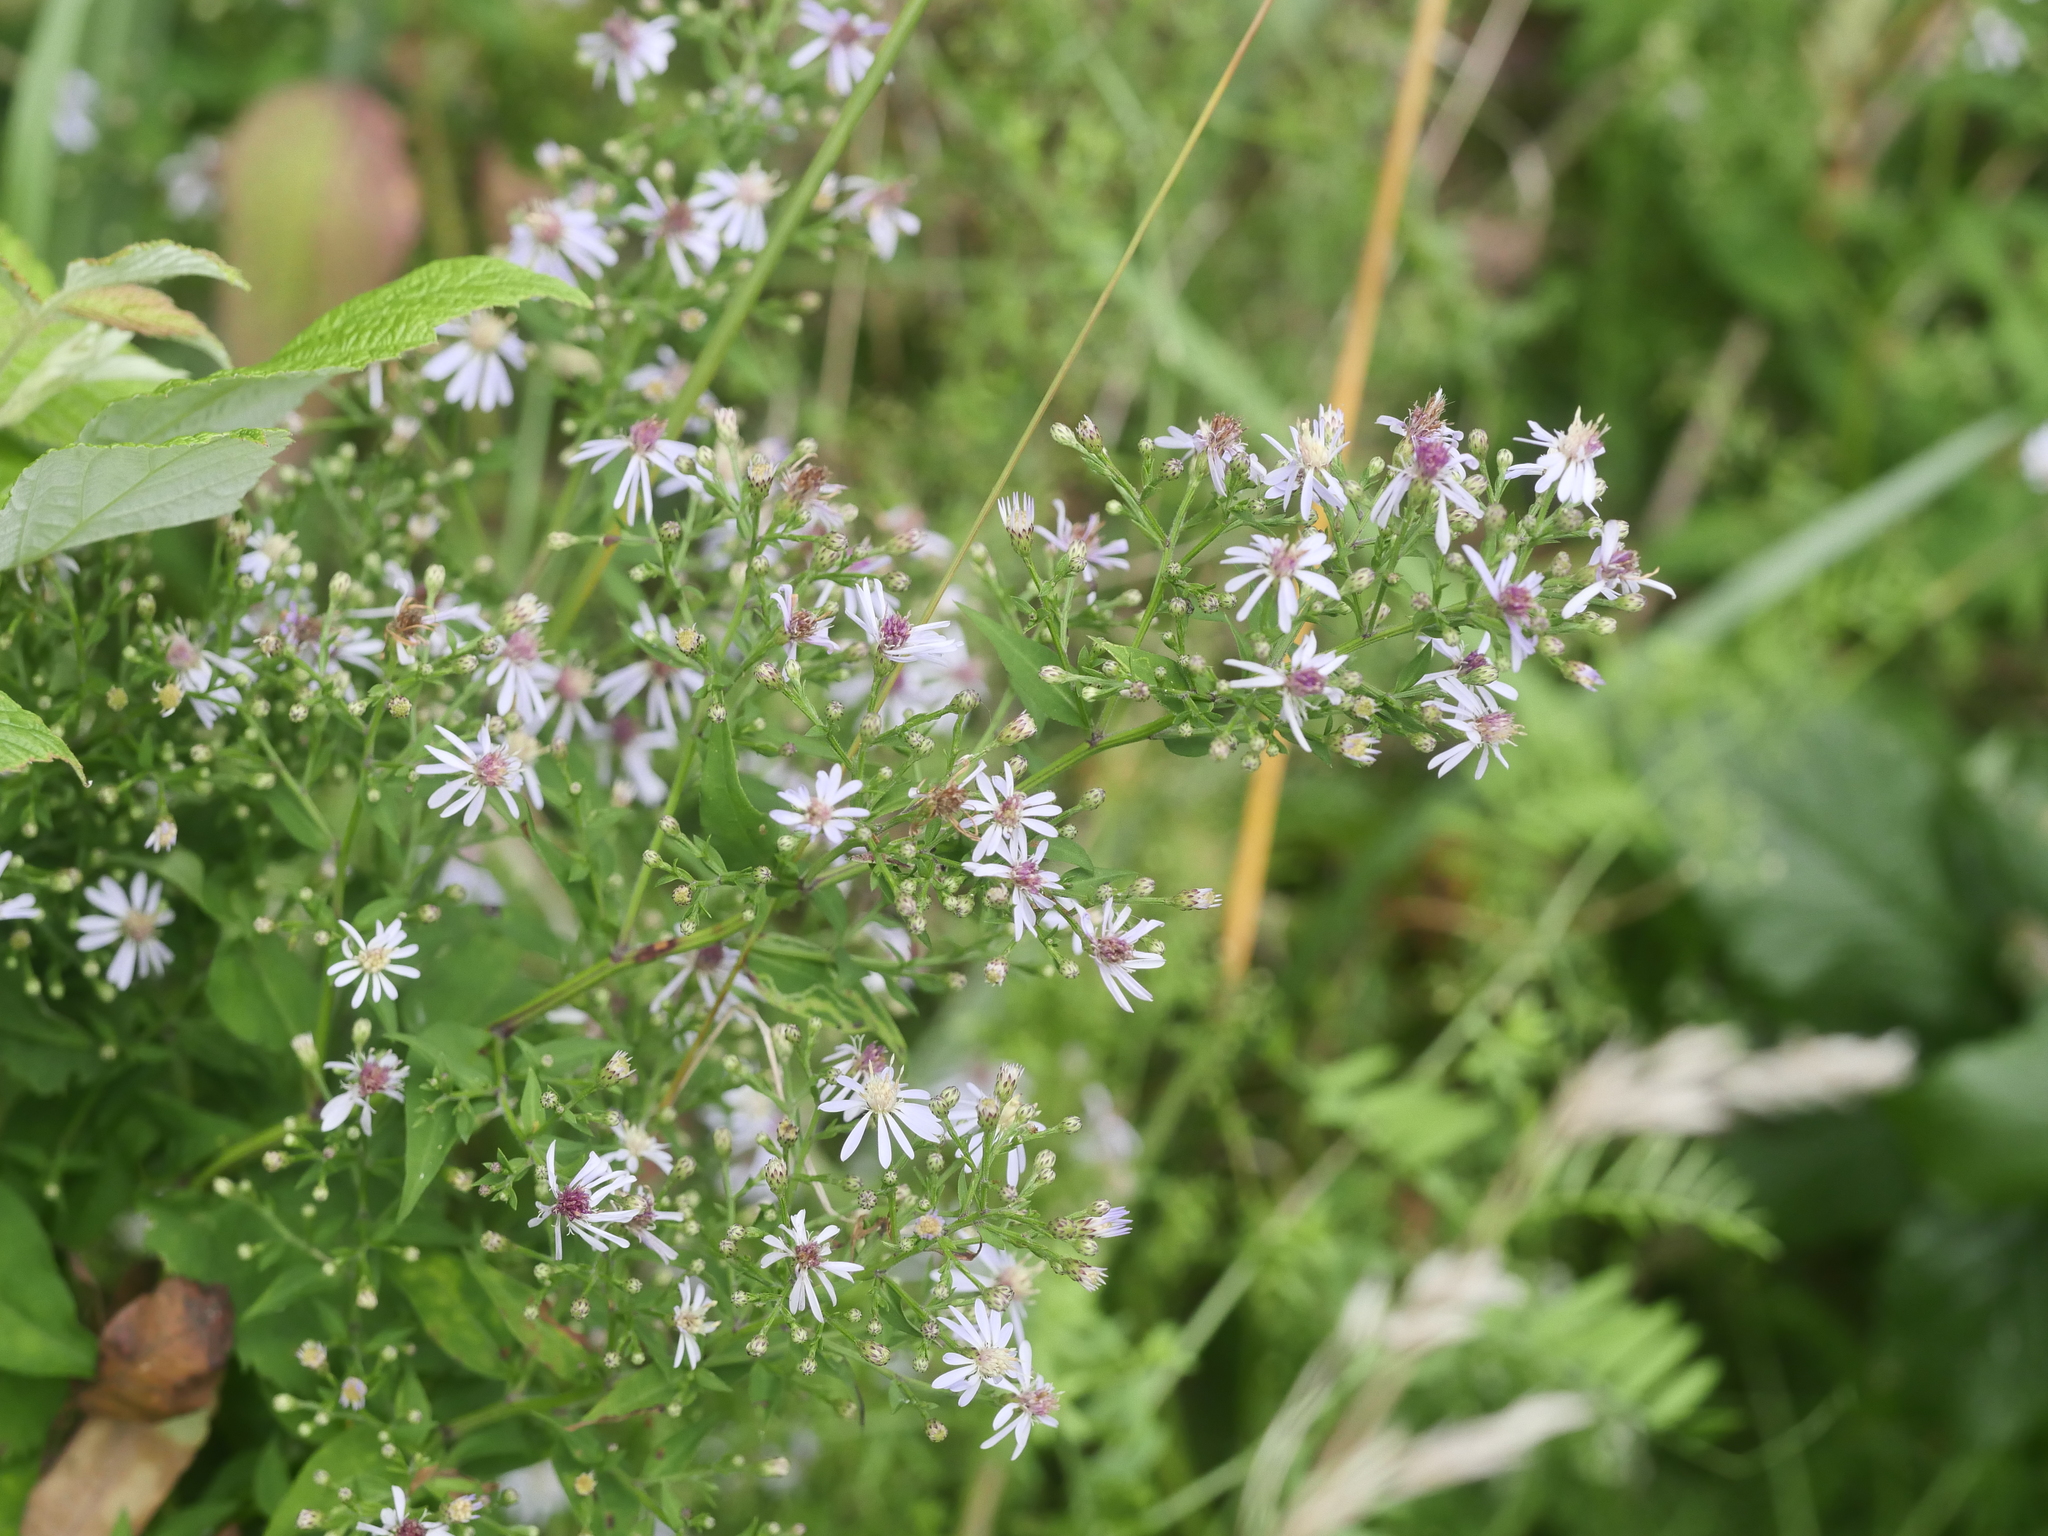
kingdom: Plantae
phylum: Tracheophyta
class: Magnoliopsida
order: Asterales
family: Asteraceae
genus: Symphyotrichum
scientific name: Symphyotrichum cordifolium
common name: Beeweed
